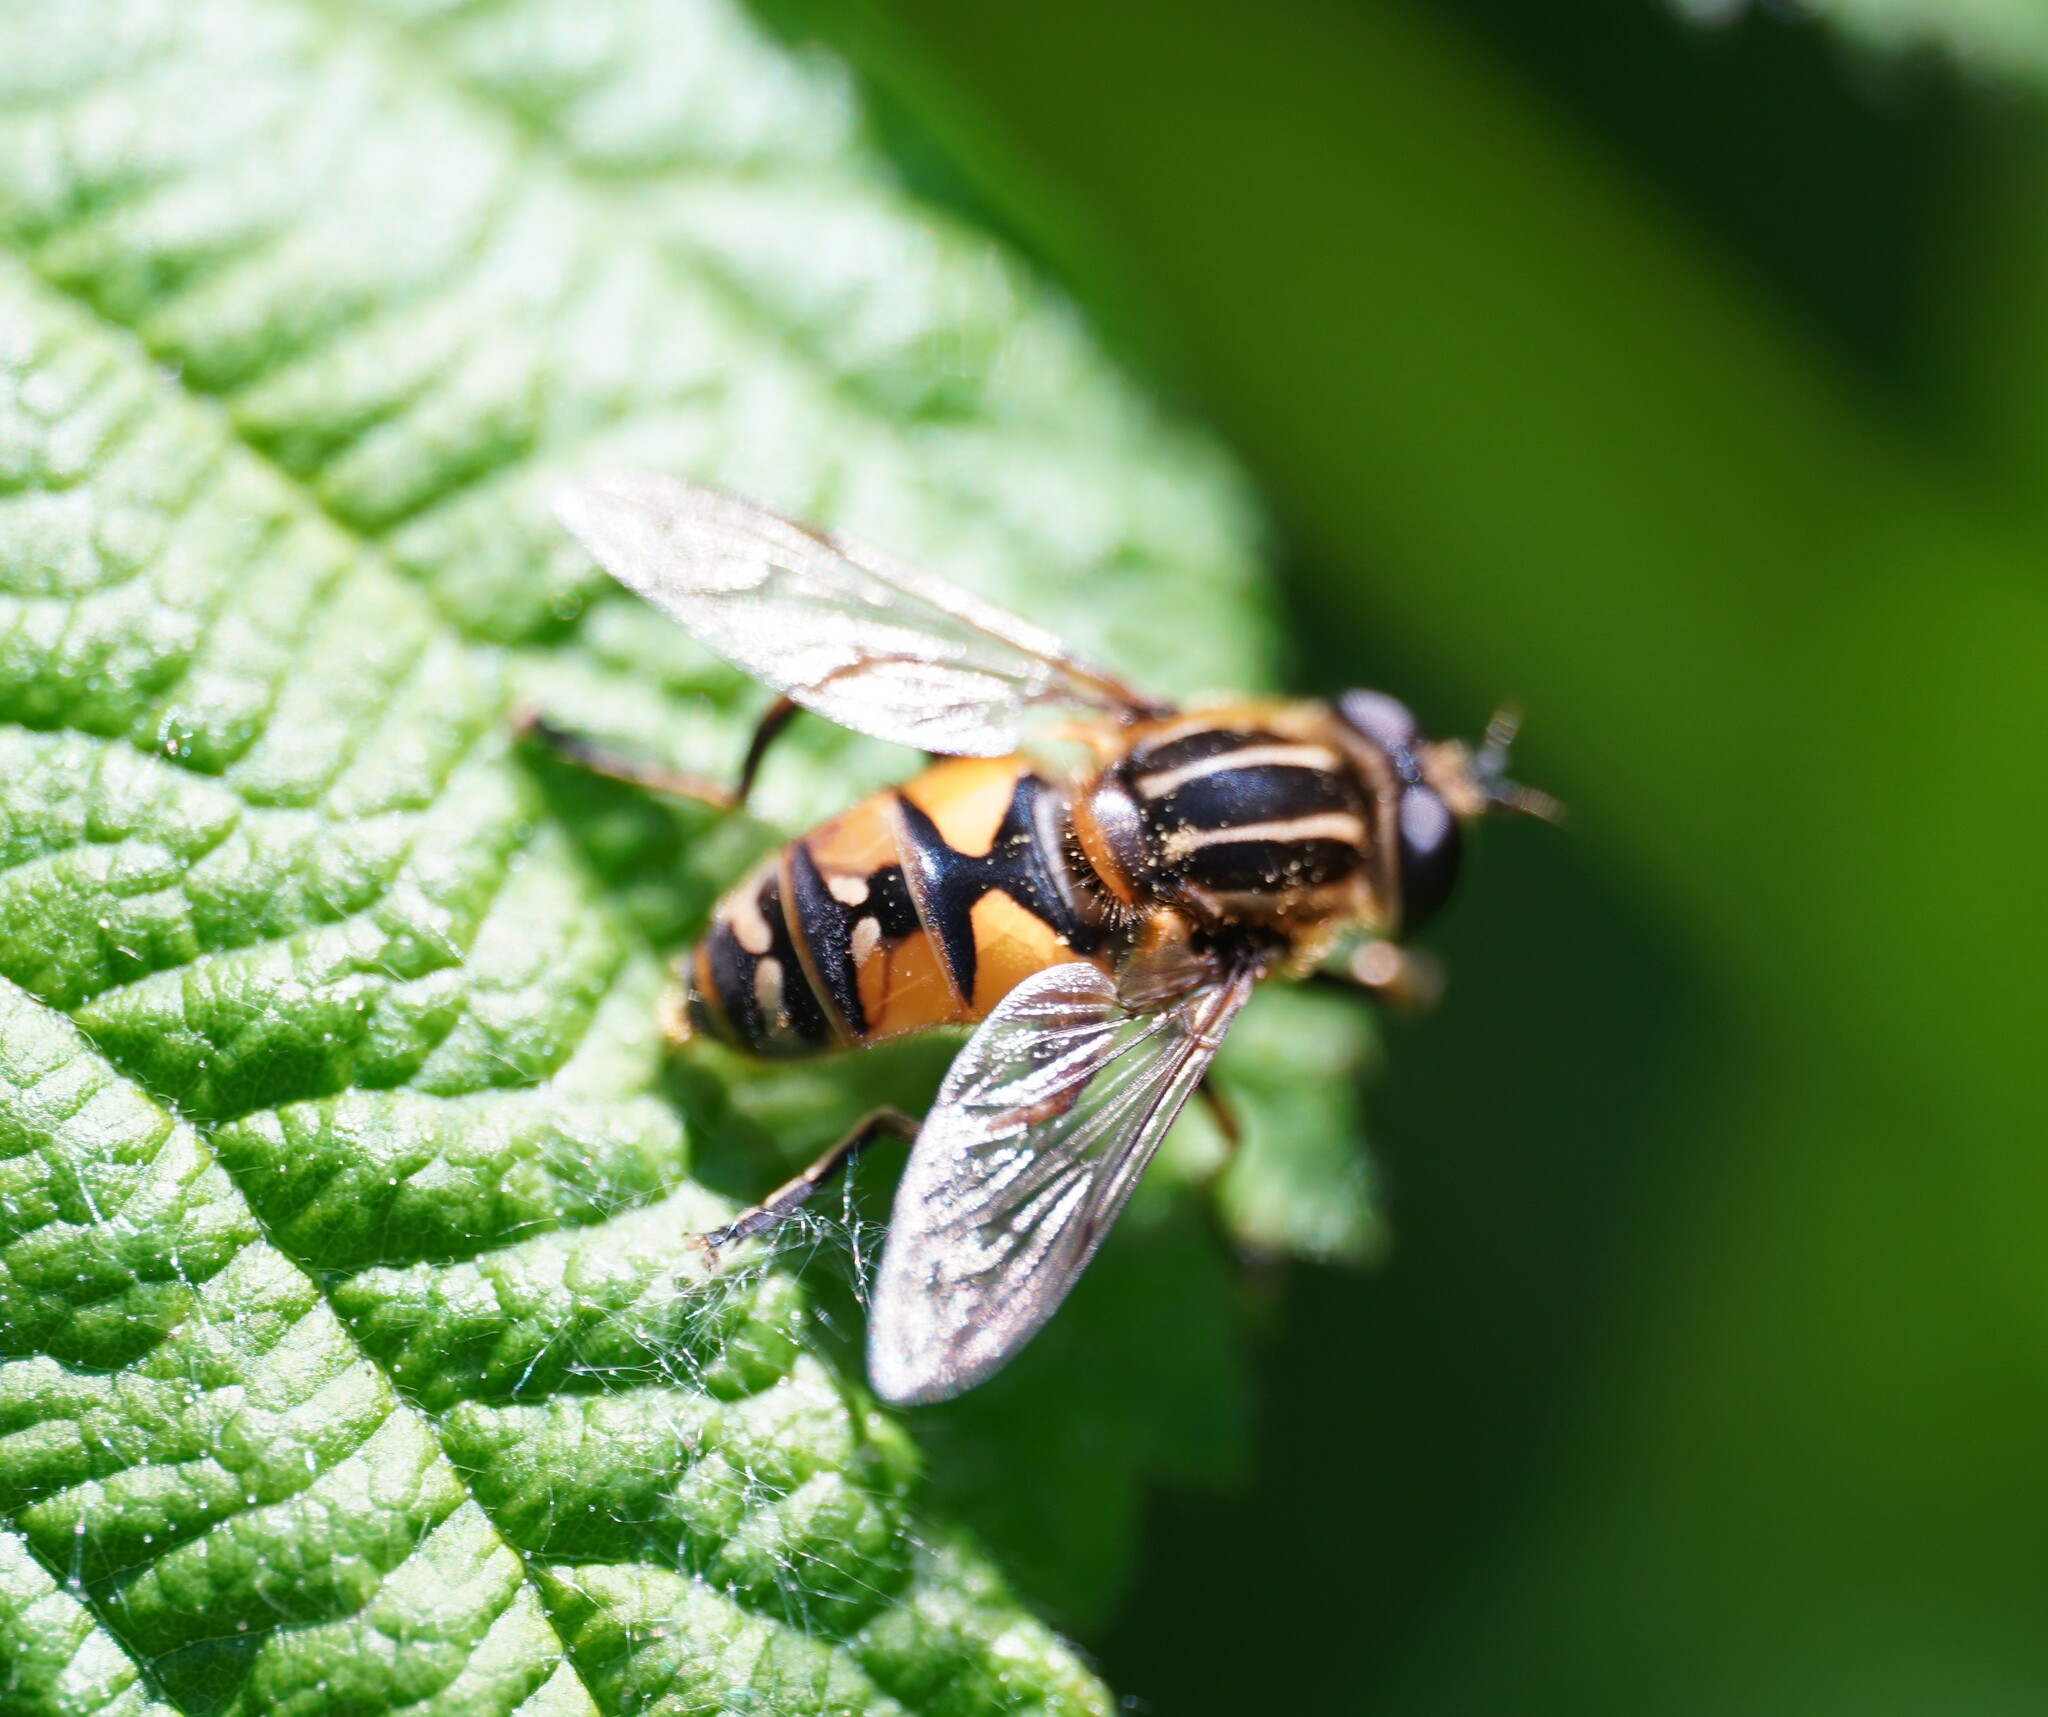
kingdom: Animalia
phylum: Arthropoda
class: Insecta
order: Diptera
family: Syrphidae
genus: Helophilus
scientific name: Helophilus pendulus
